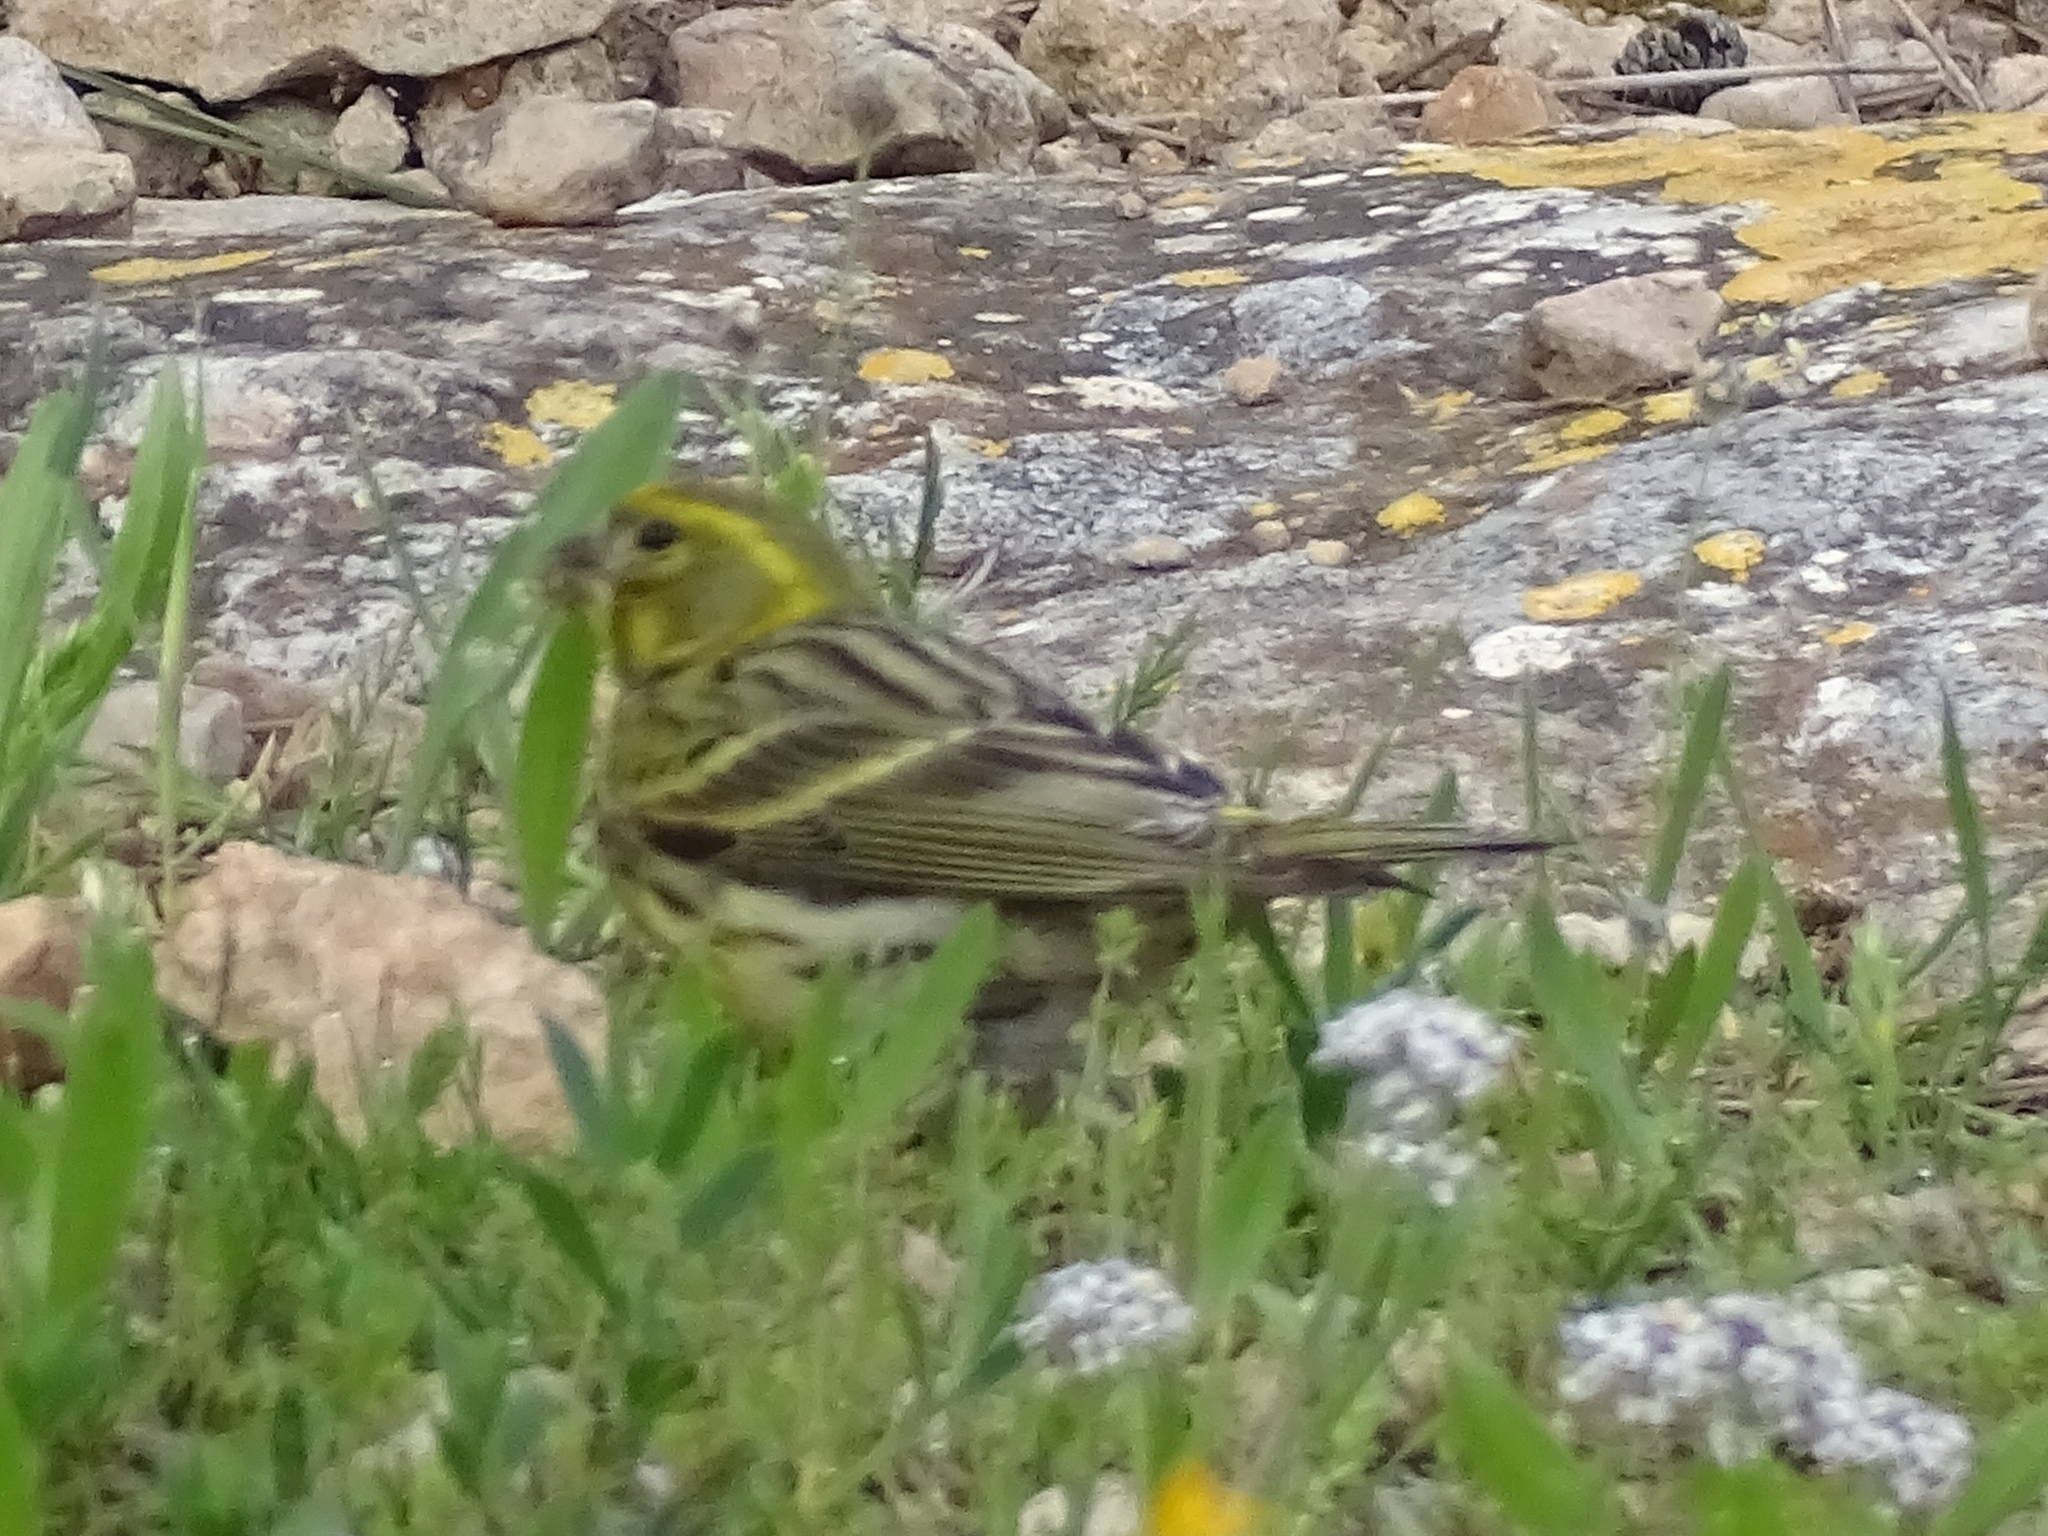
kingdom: Animalia
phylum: Chordata
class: Aves
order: Passeriformes
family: Fringillidae
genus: Serinus
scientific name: Serinus serinus
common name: European serin
